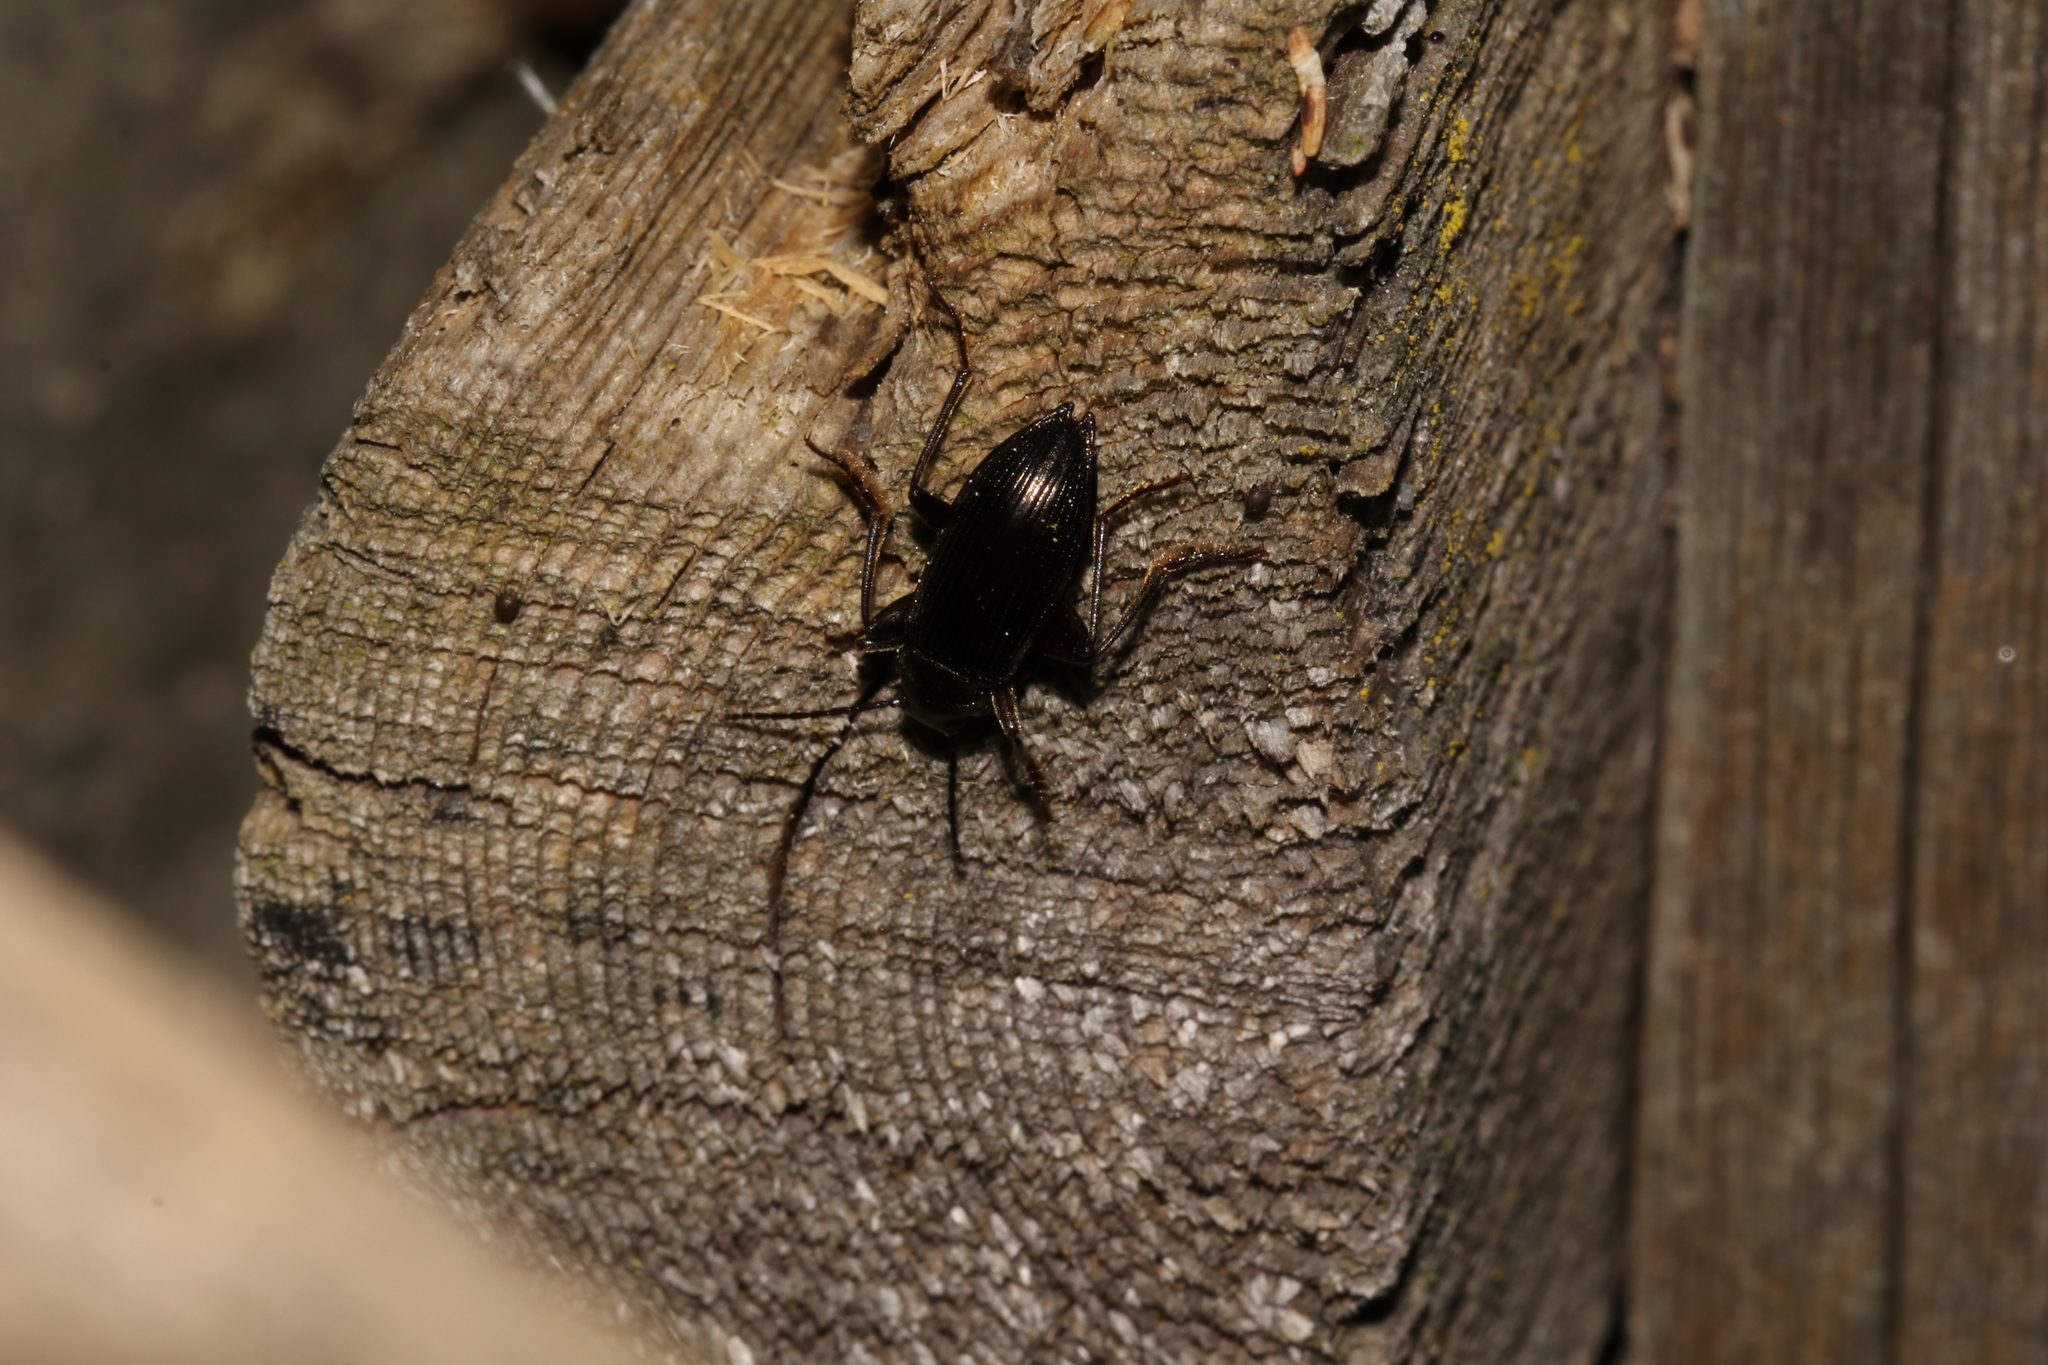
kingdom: Animalia
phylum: Arthropoda
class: Insecta
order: Coleoptera
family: Tenebrionidae
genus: Stenomax
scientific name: Stenomax aeneus
